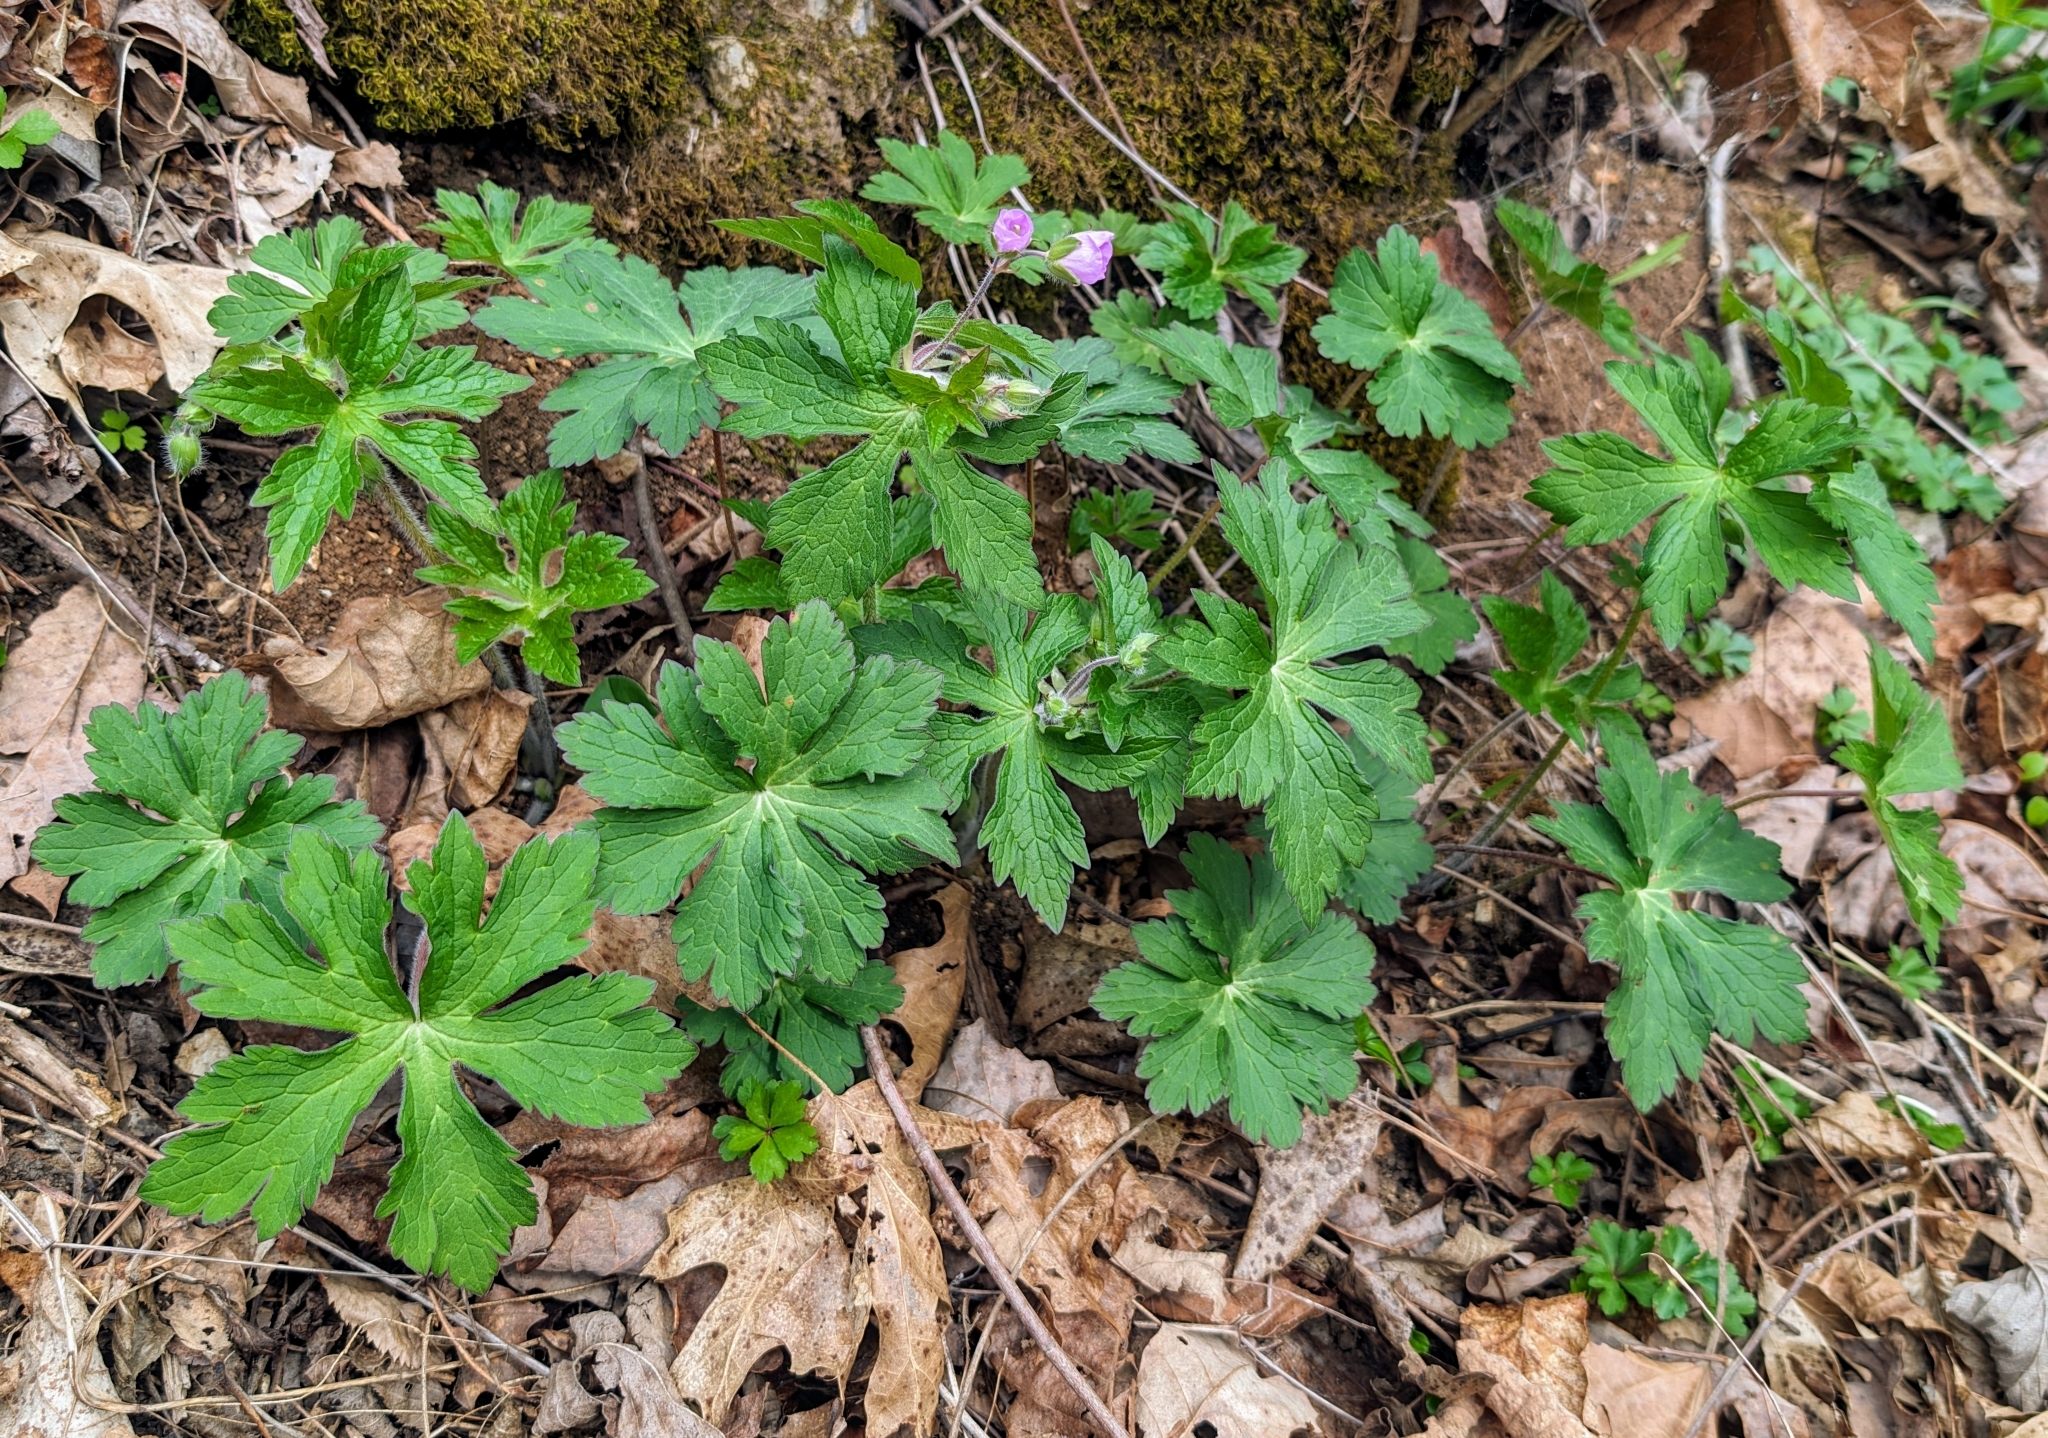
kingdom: Plantae
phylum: Tracheophyta
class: Magnoliopsida
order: Geraniales
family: Geraniaceae
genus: Geranium
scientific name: Geranium maculatum
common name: Spotted geranium
